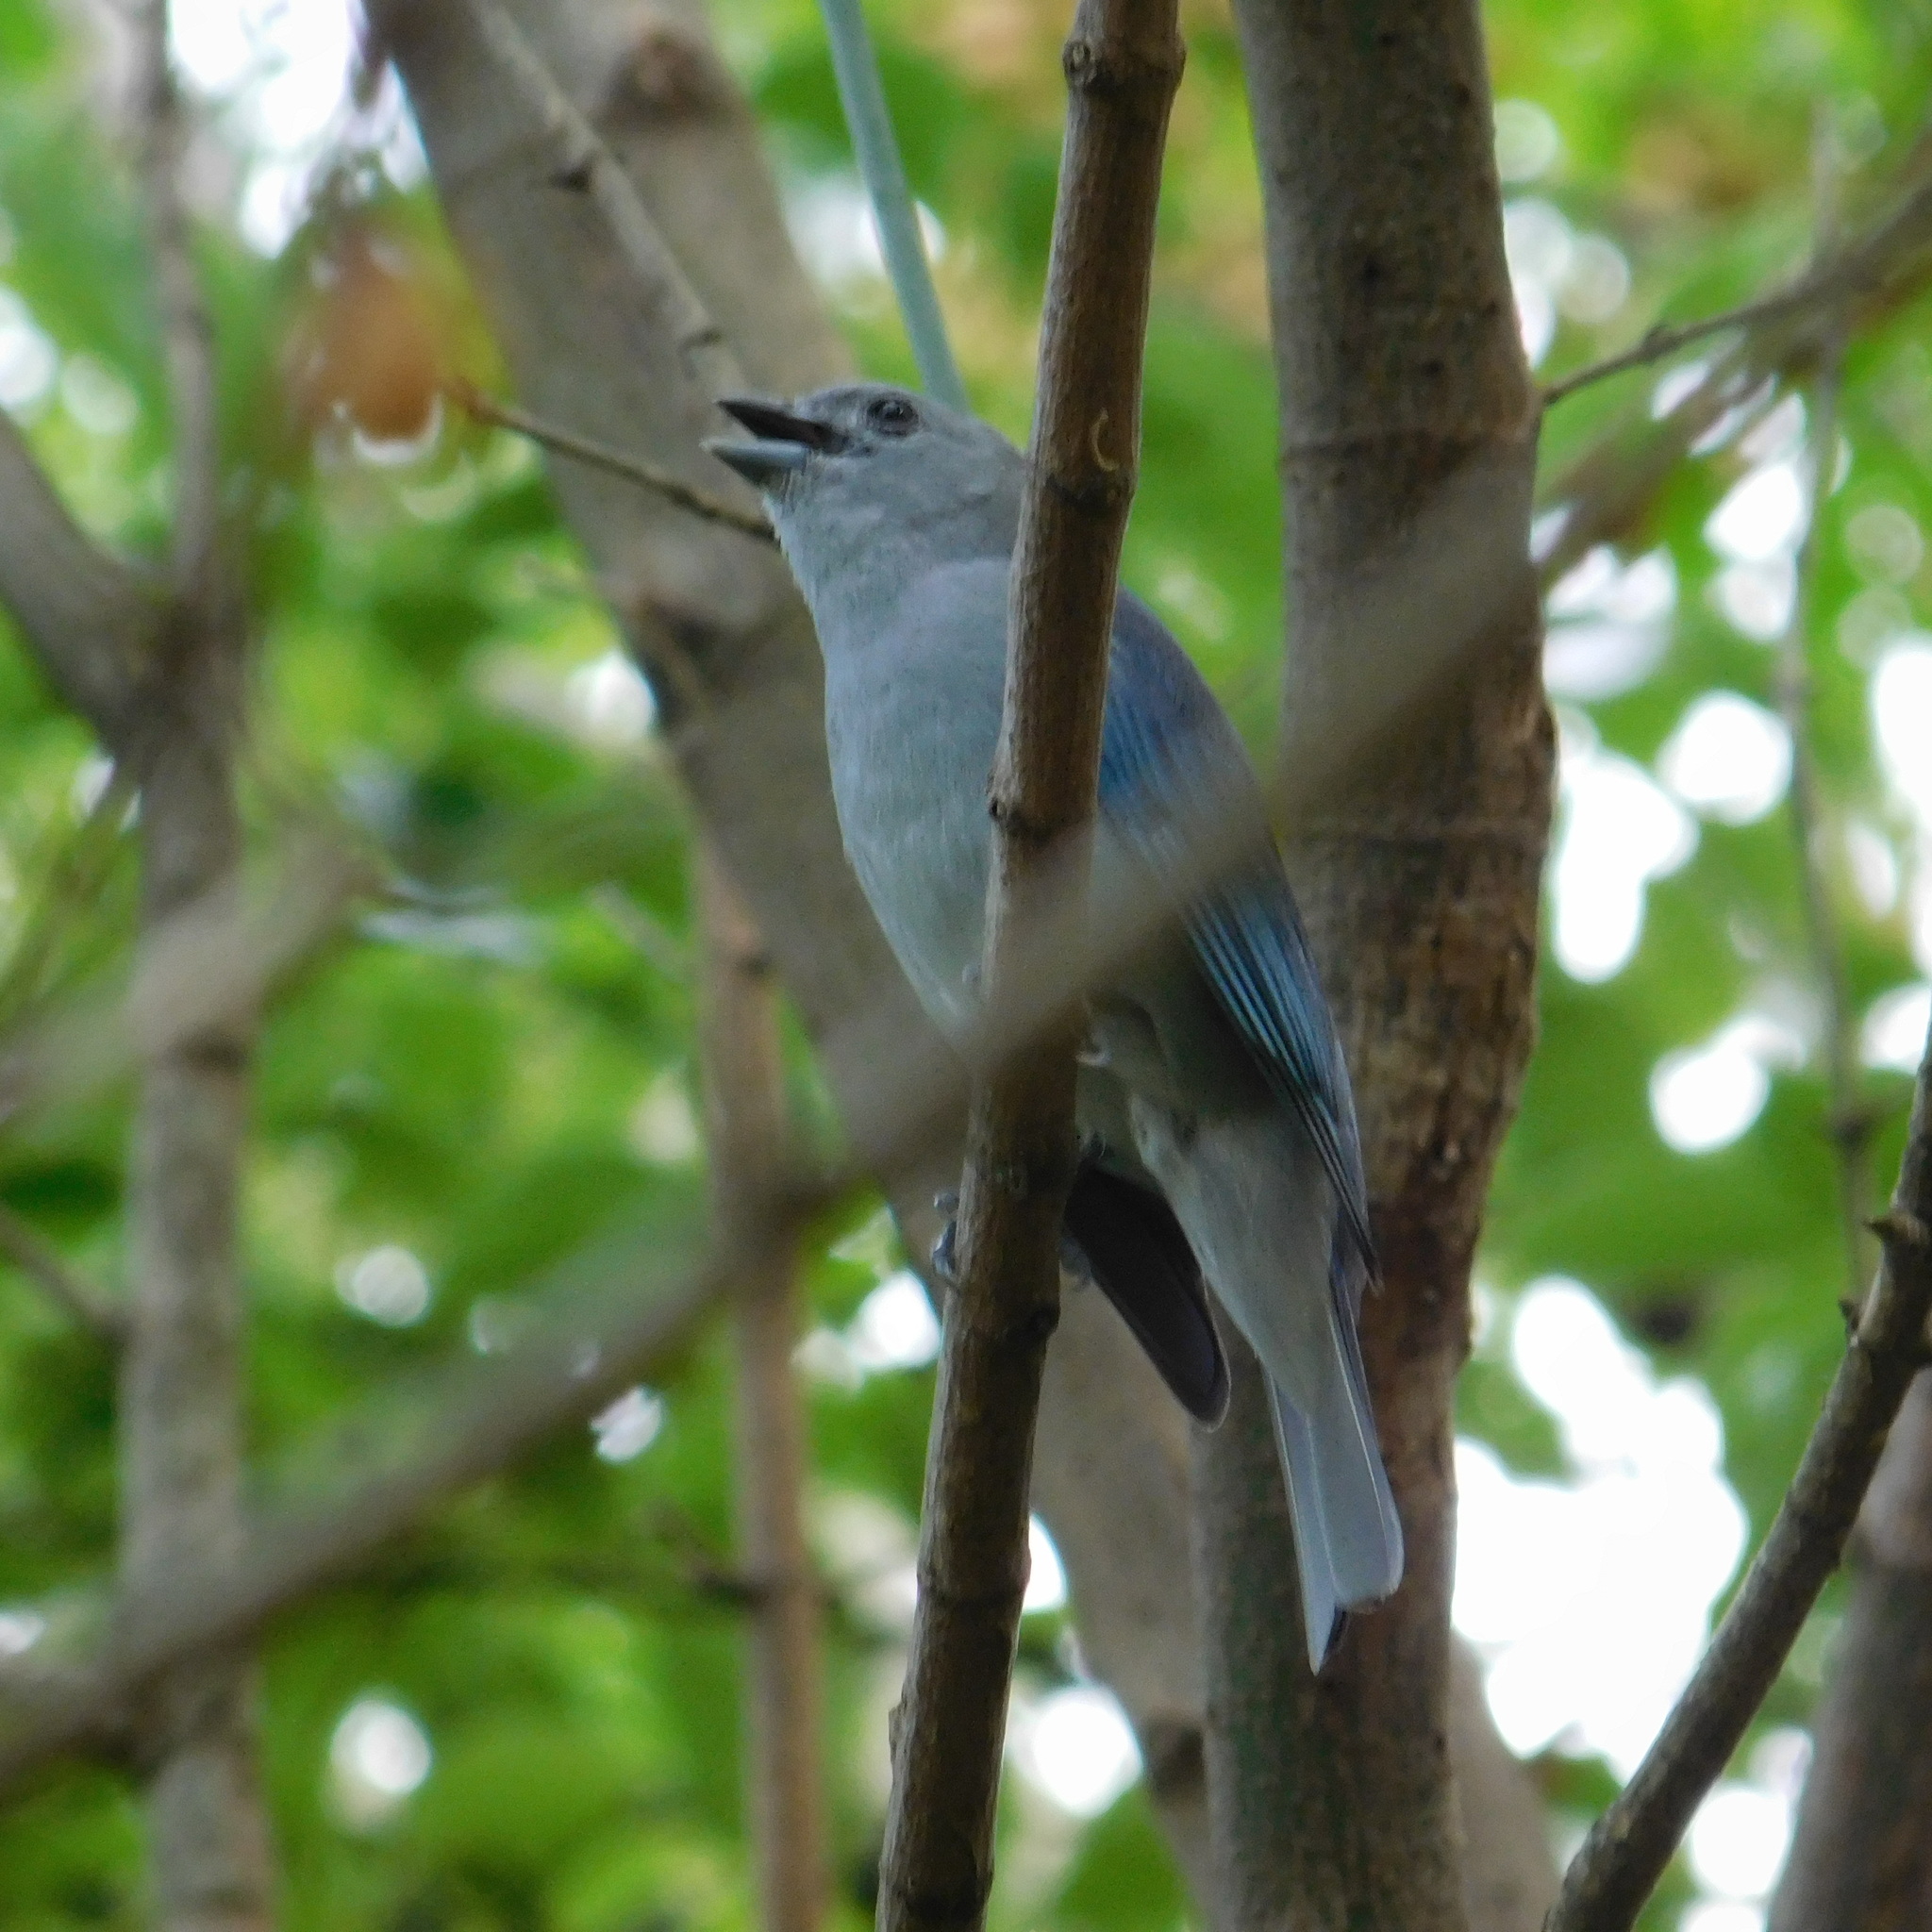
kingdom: Animalia
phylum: Chordata
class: Aves
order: Passeriformes
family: Thraupidae
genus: Thraupis
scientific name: Thraupis sayaca
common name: Sayaca tanager
